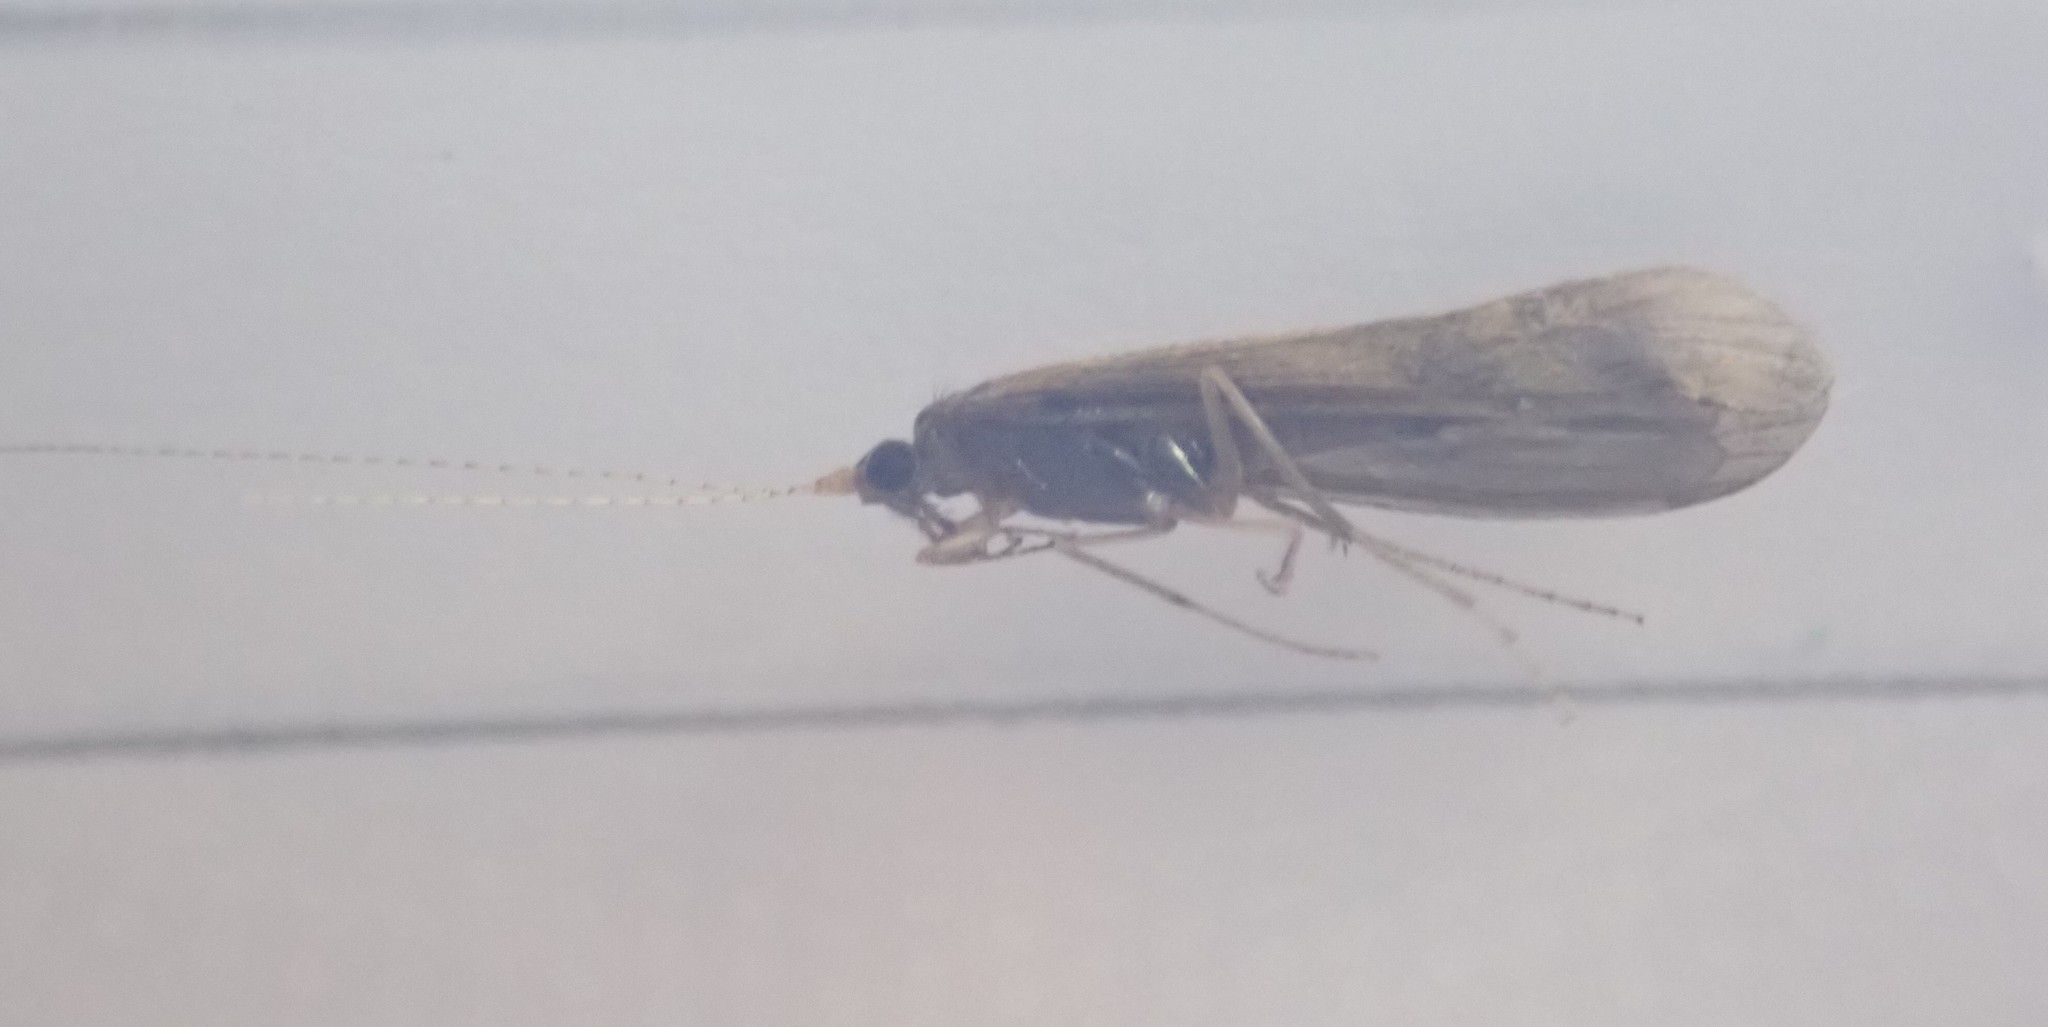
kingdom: Animalia
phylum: Arthropoda
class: Insecta
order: Trichoptera
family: Leptoceridae
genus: Mystacides
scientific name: Mystacides longicornis
